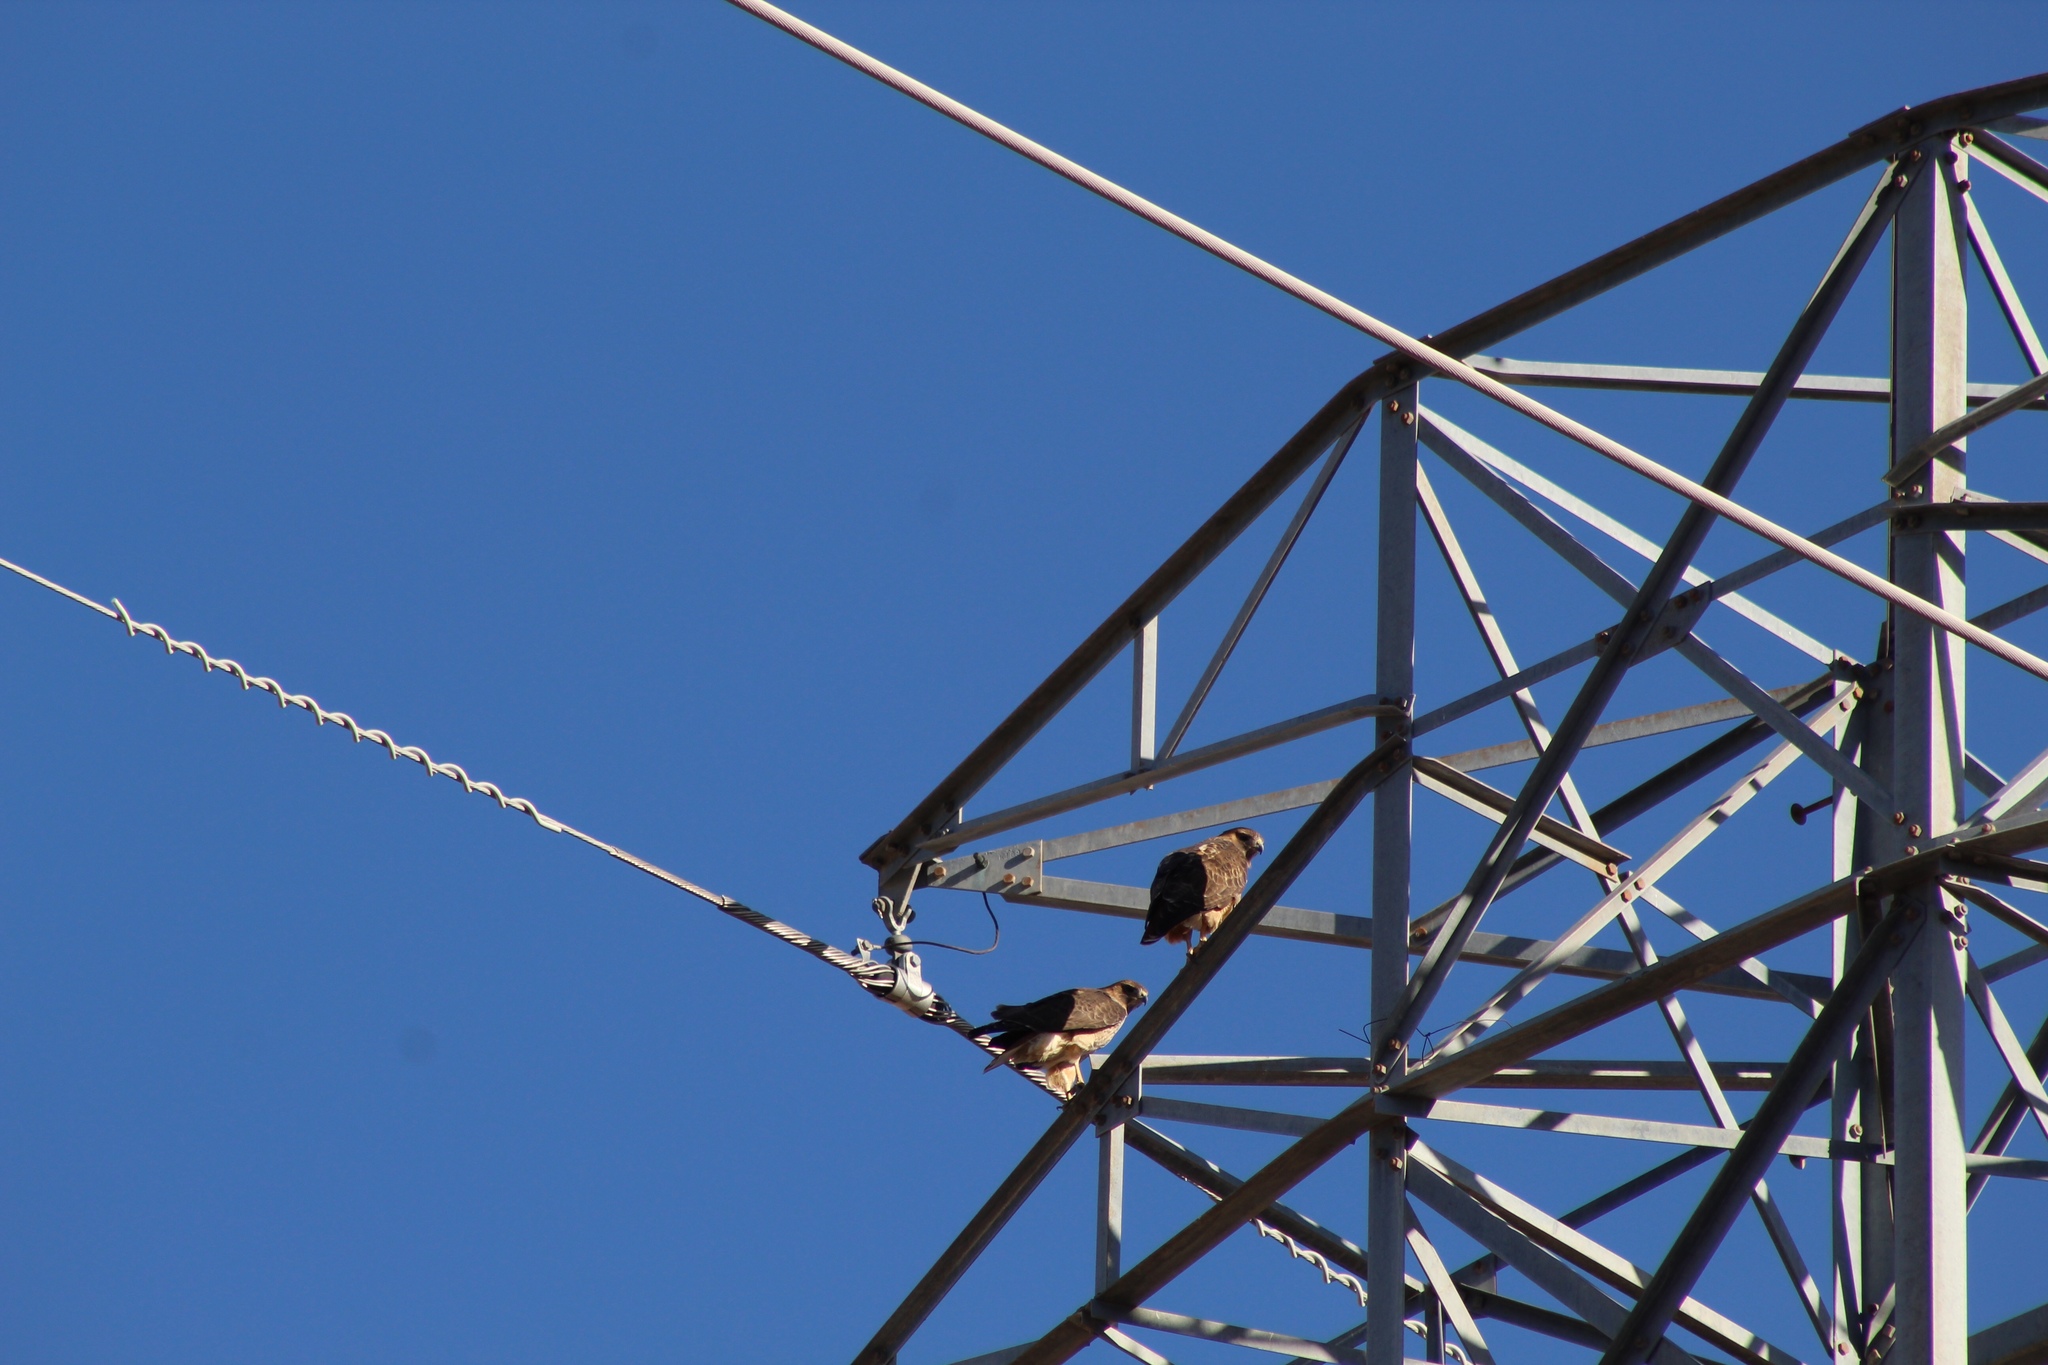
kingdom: Animalia
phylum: Chordata
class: Aves
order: Accipitriformes
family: Accipitridae
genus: Buteo
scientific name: Buteo jamaicensis
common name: Red-tailed hawk
